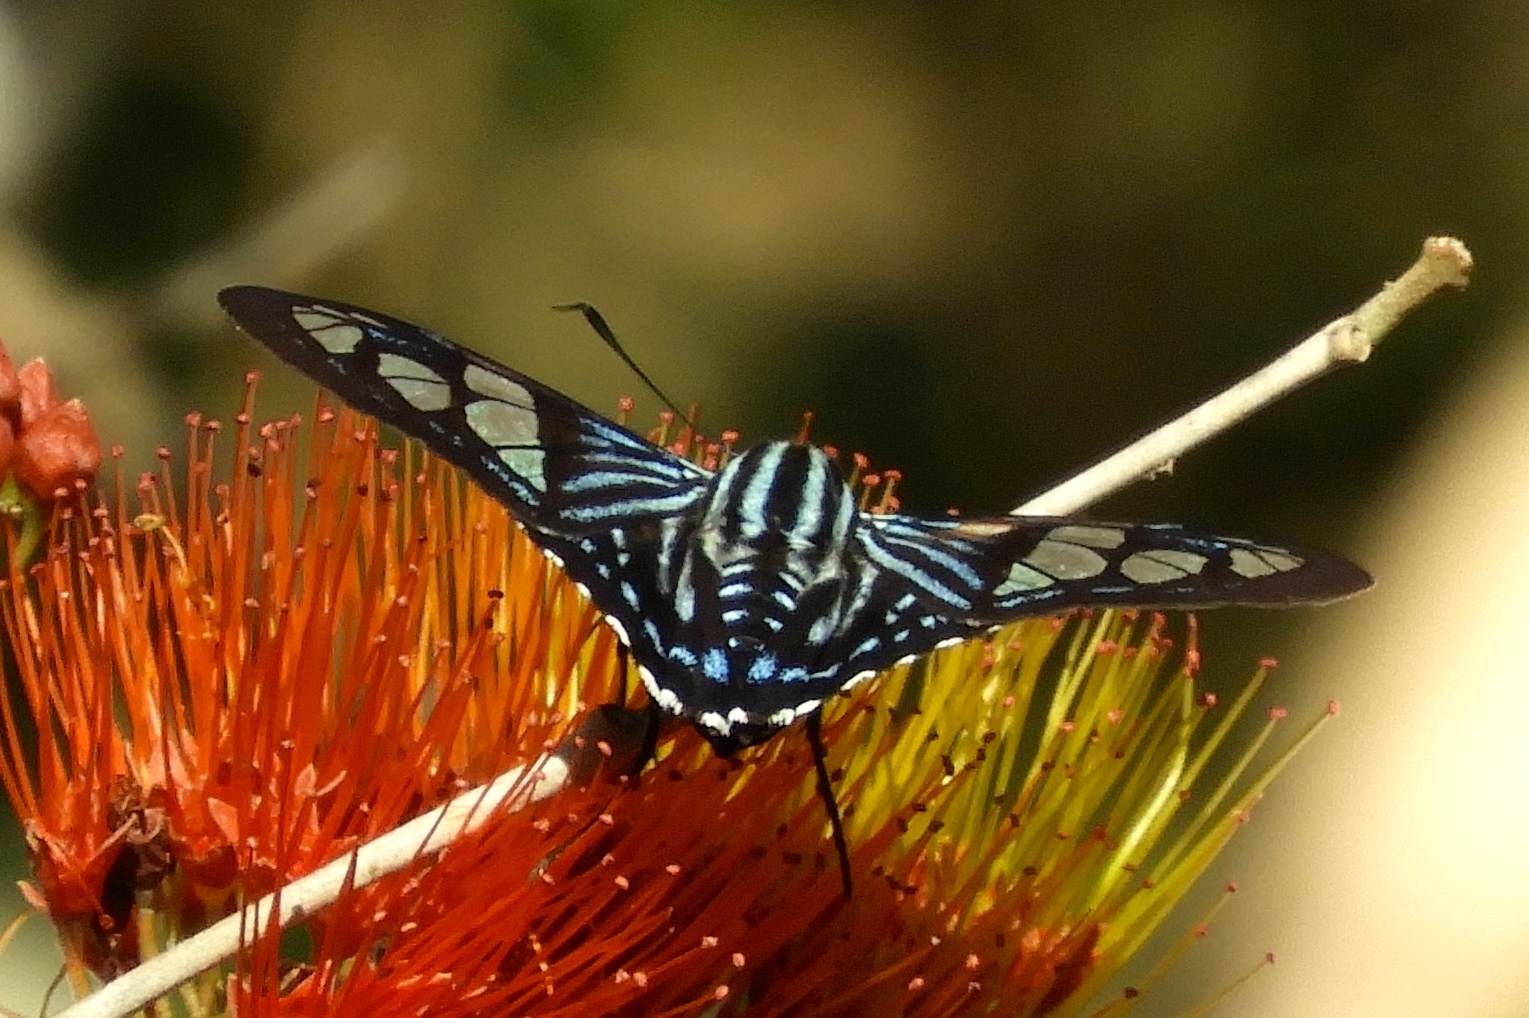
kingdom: Animalia
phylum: Arthropoda
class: Insecta
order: Lepidoptera
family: Hesperiidae
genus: Phocides
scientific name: Phocides pigmalion
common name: Mangrove skipper
